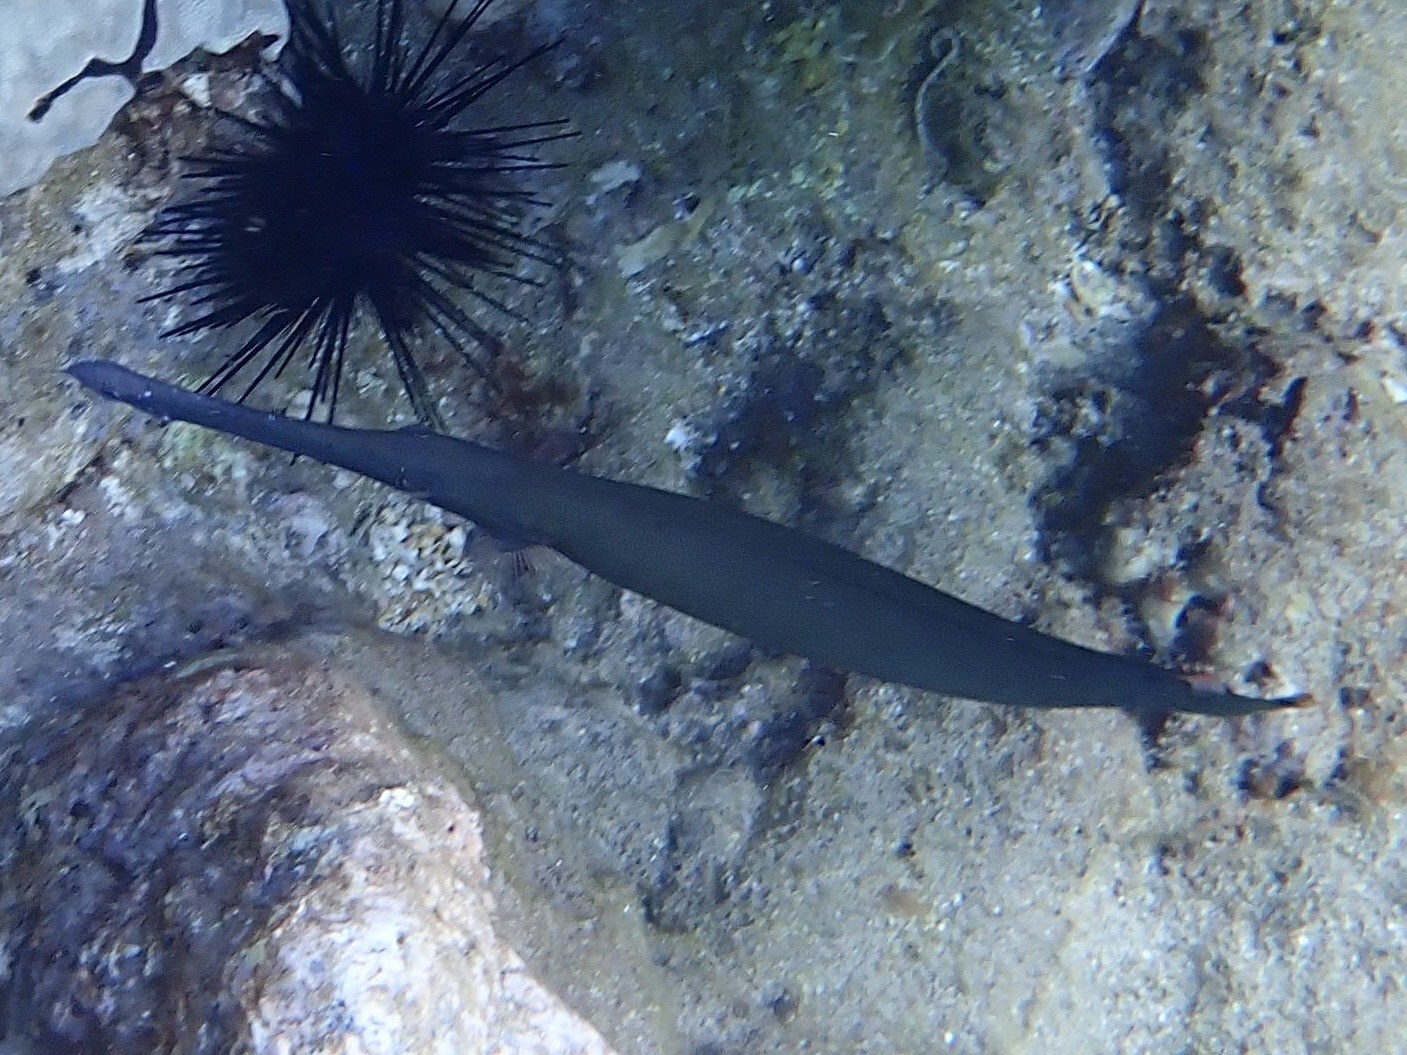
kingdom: Animalia
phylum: Chordata
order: Syngnathiformes
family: Aulostomidae
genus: Aulostomus
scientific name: Aulostomus chinensis
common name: Chinese trumpetfish
